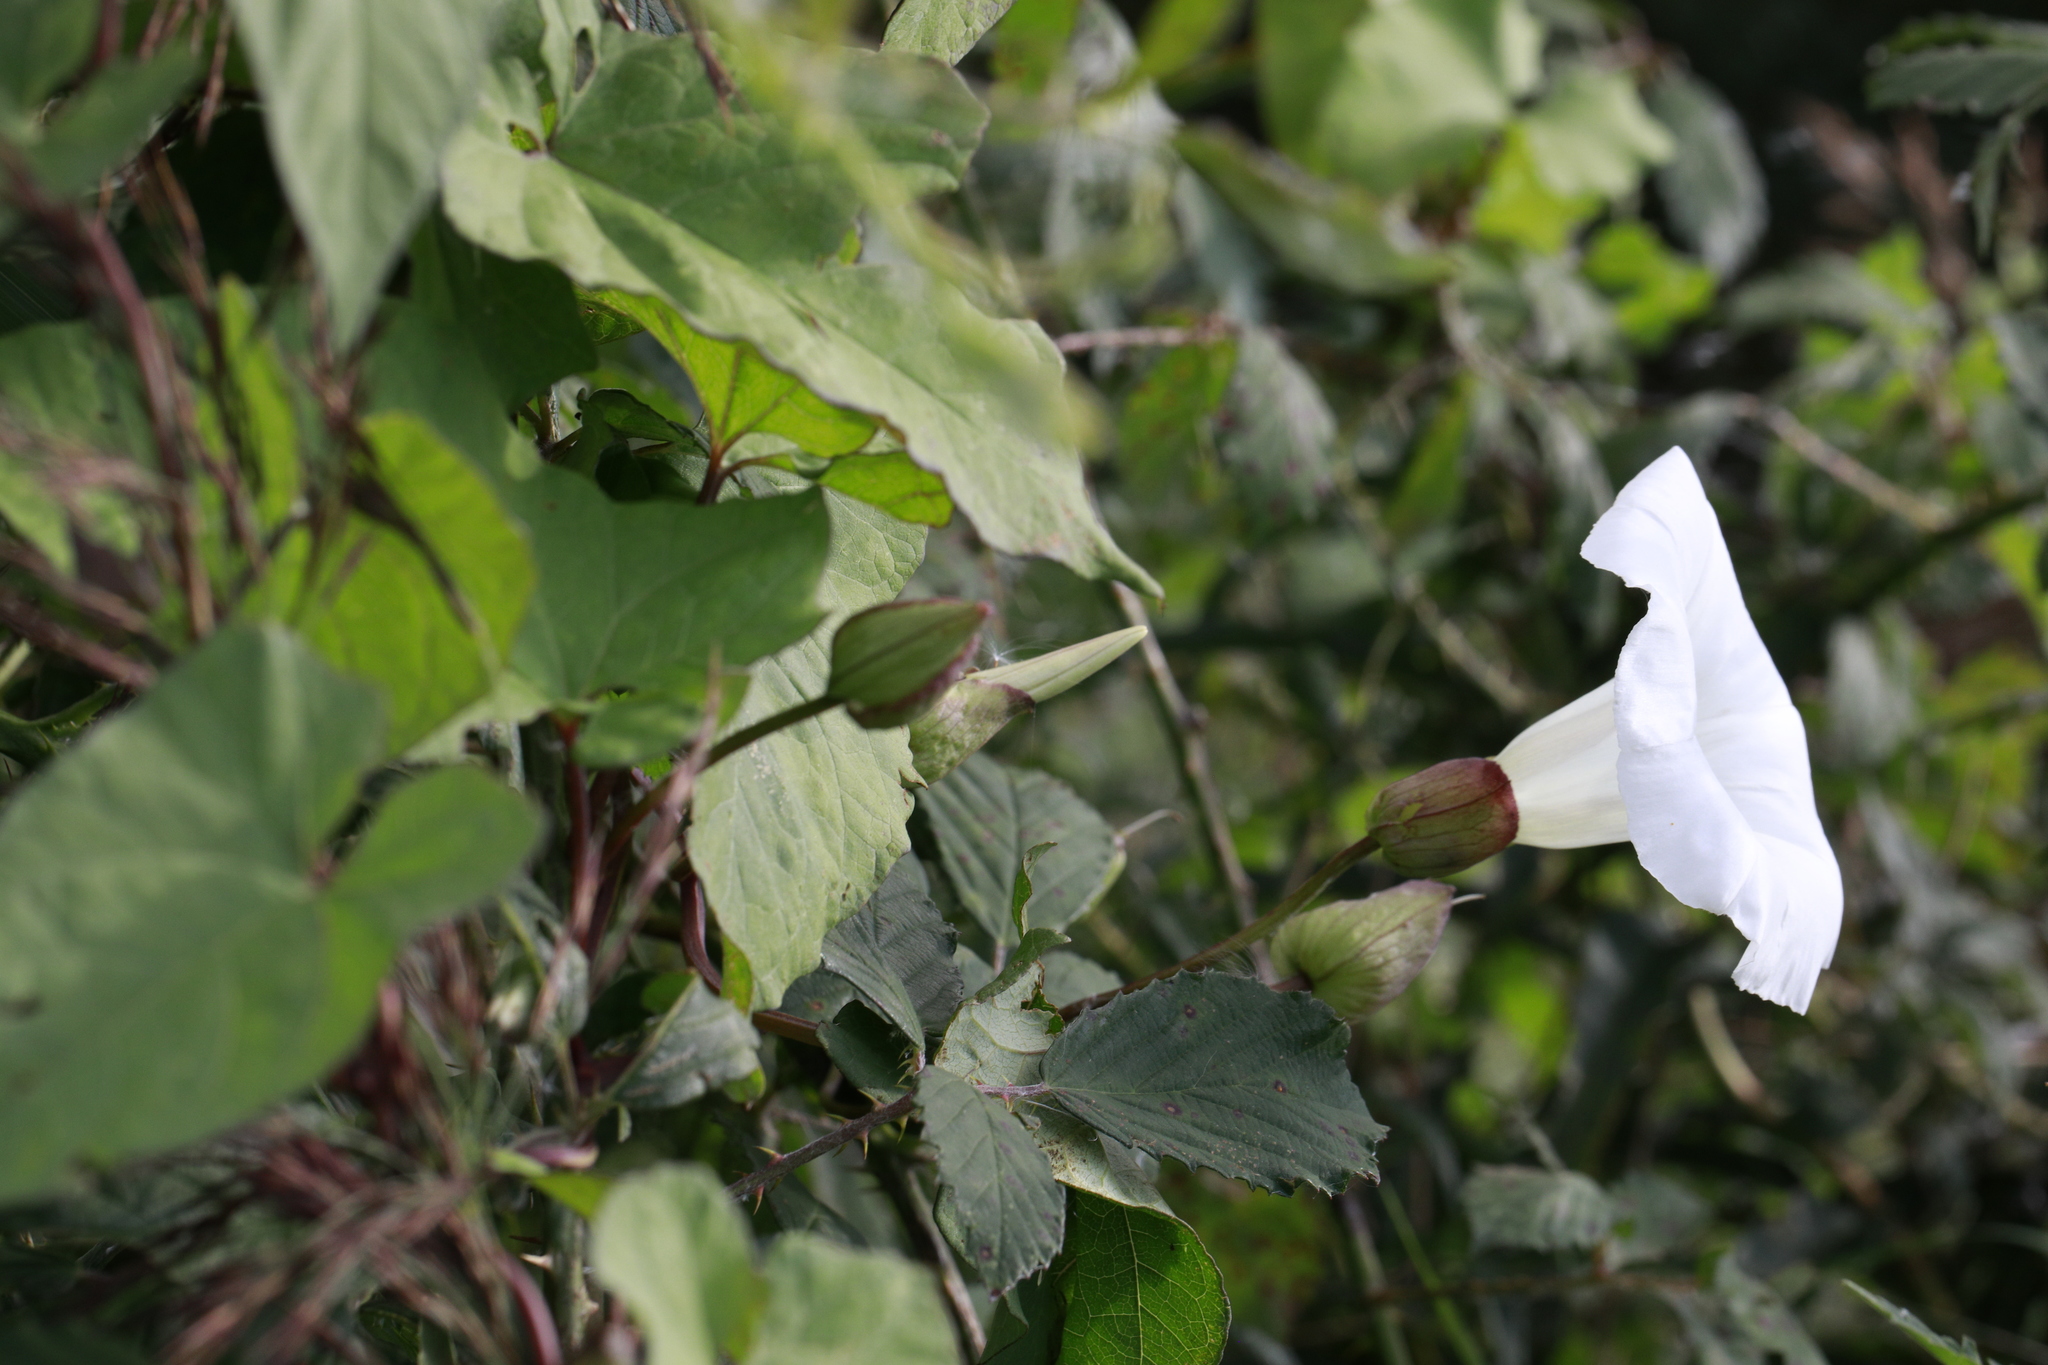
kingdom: Plantae
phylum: Tracheophyta
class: Magnoliopsida
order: Solanales
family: Convolvulaceae
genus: Calystegia
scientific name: Calystegia silvatica
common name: Large bindweed
